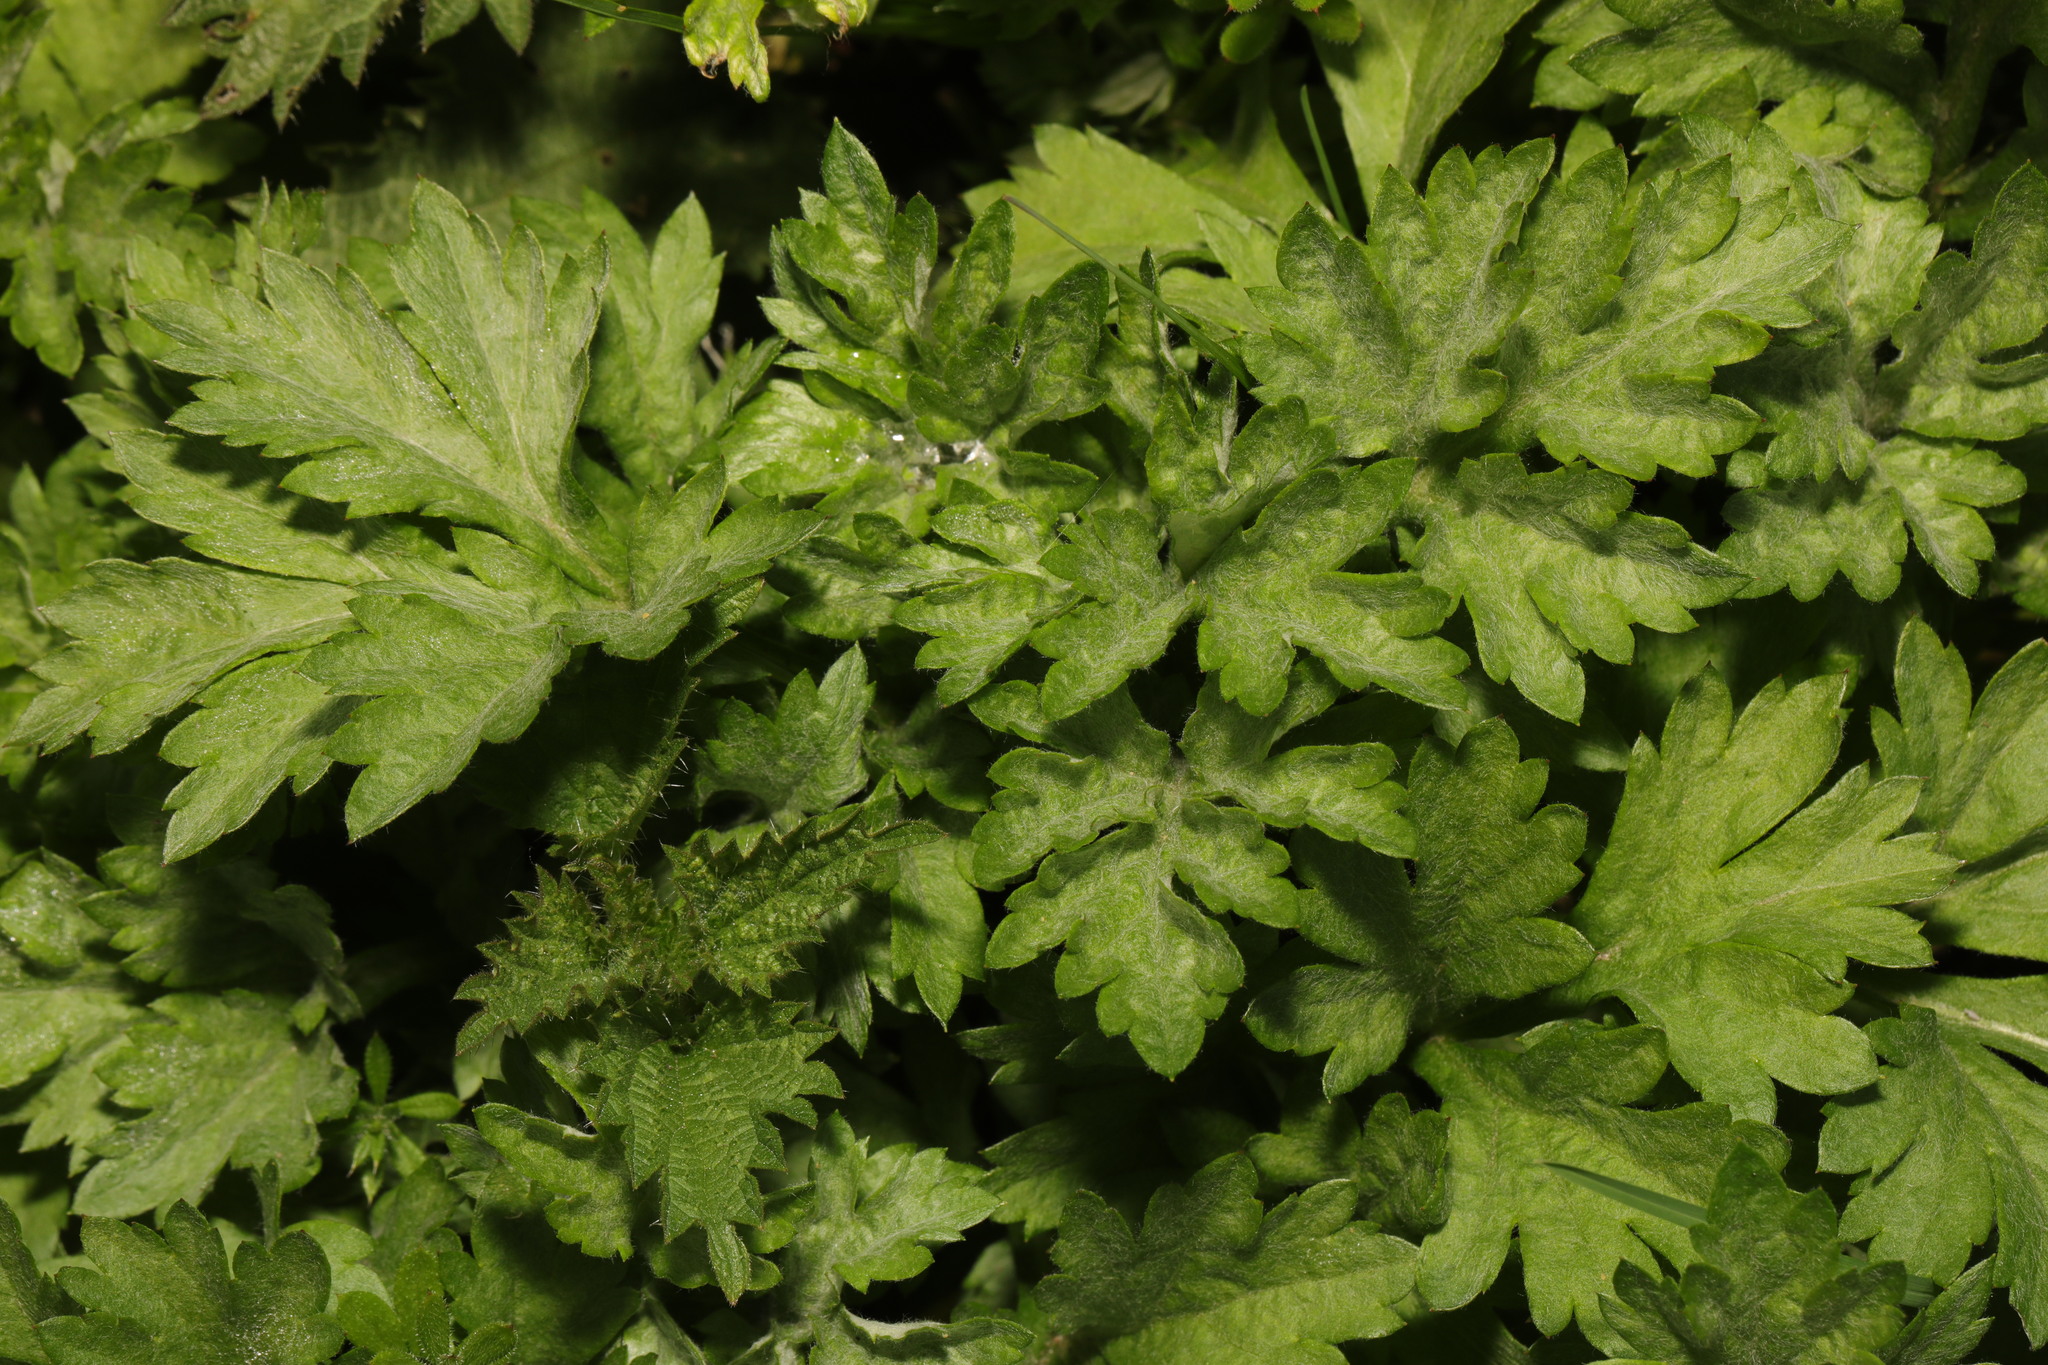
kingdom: Plantae
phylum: Tracheophyta
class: Magnoliopsida
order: Asterales
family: Asteraceae
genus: Artemisia
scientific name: Artemisia vulgaris
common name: Mugwort
